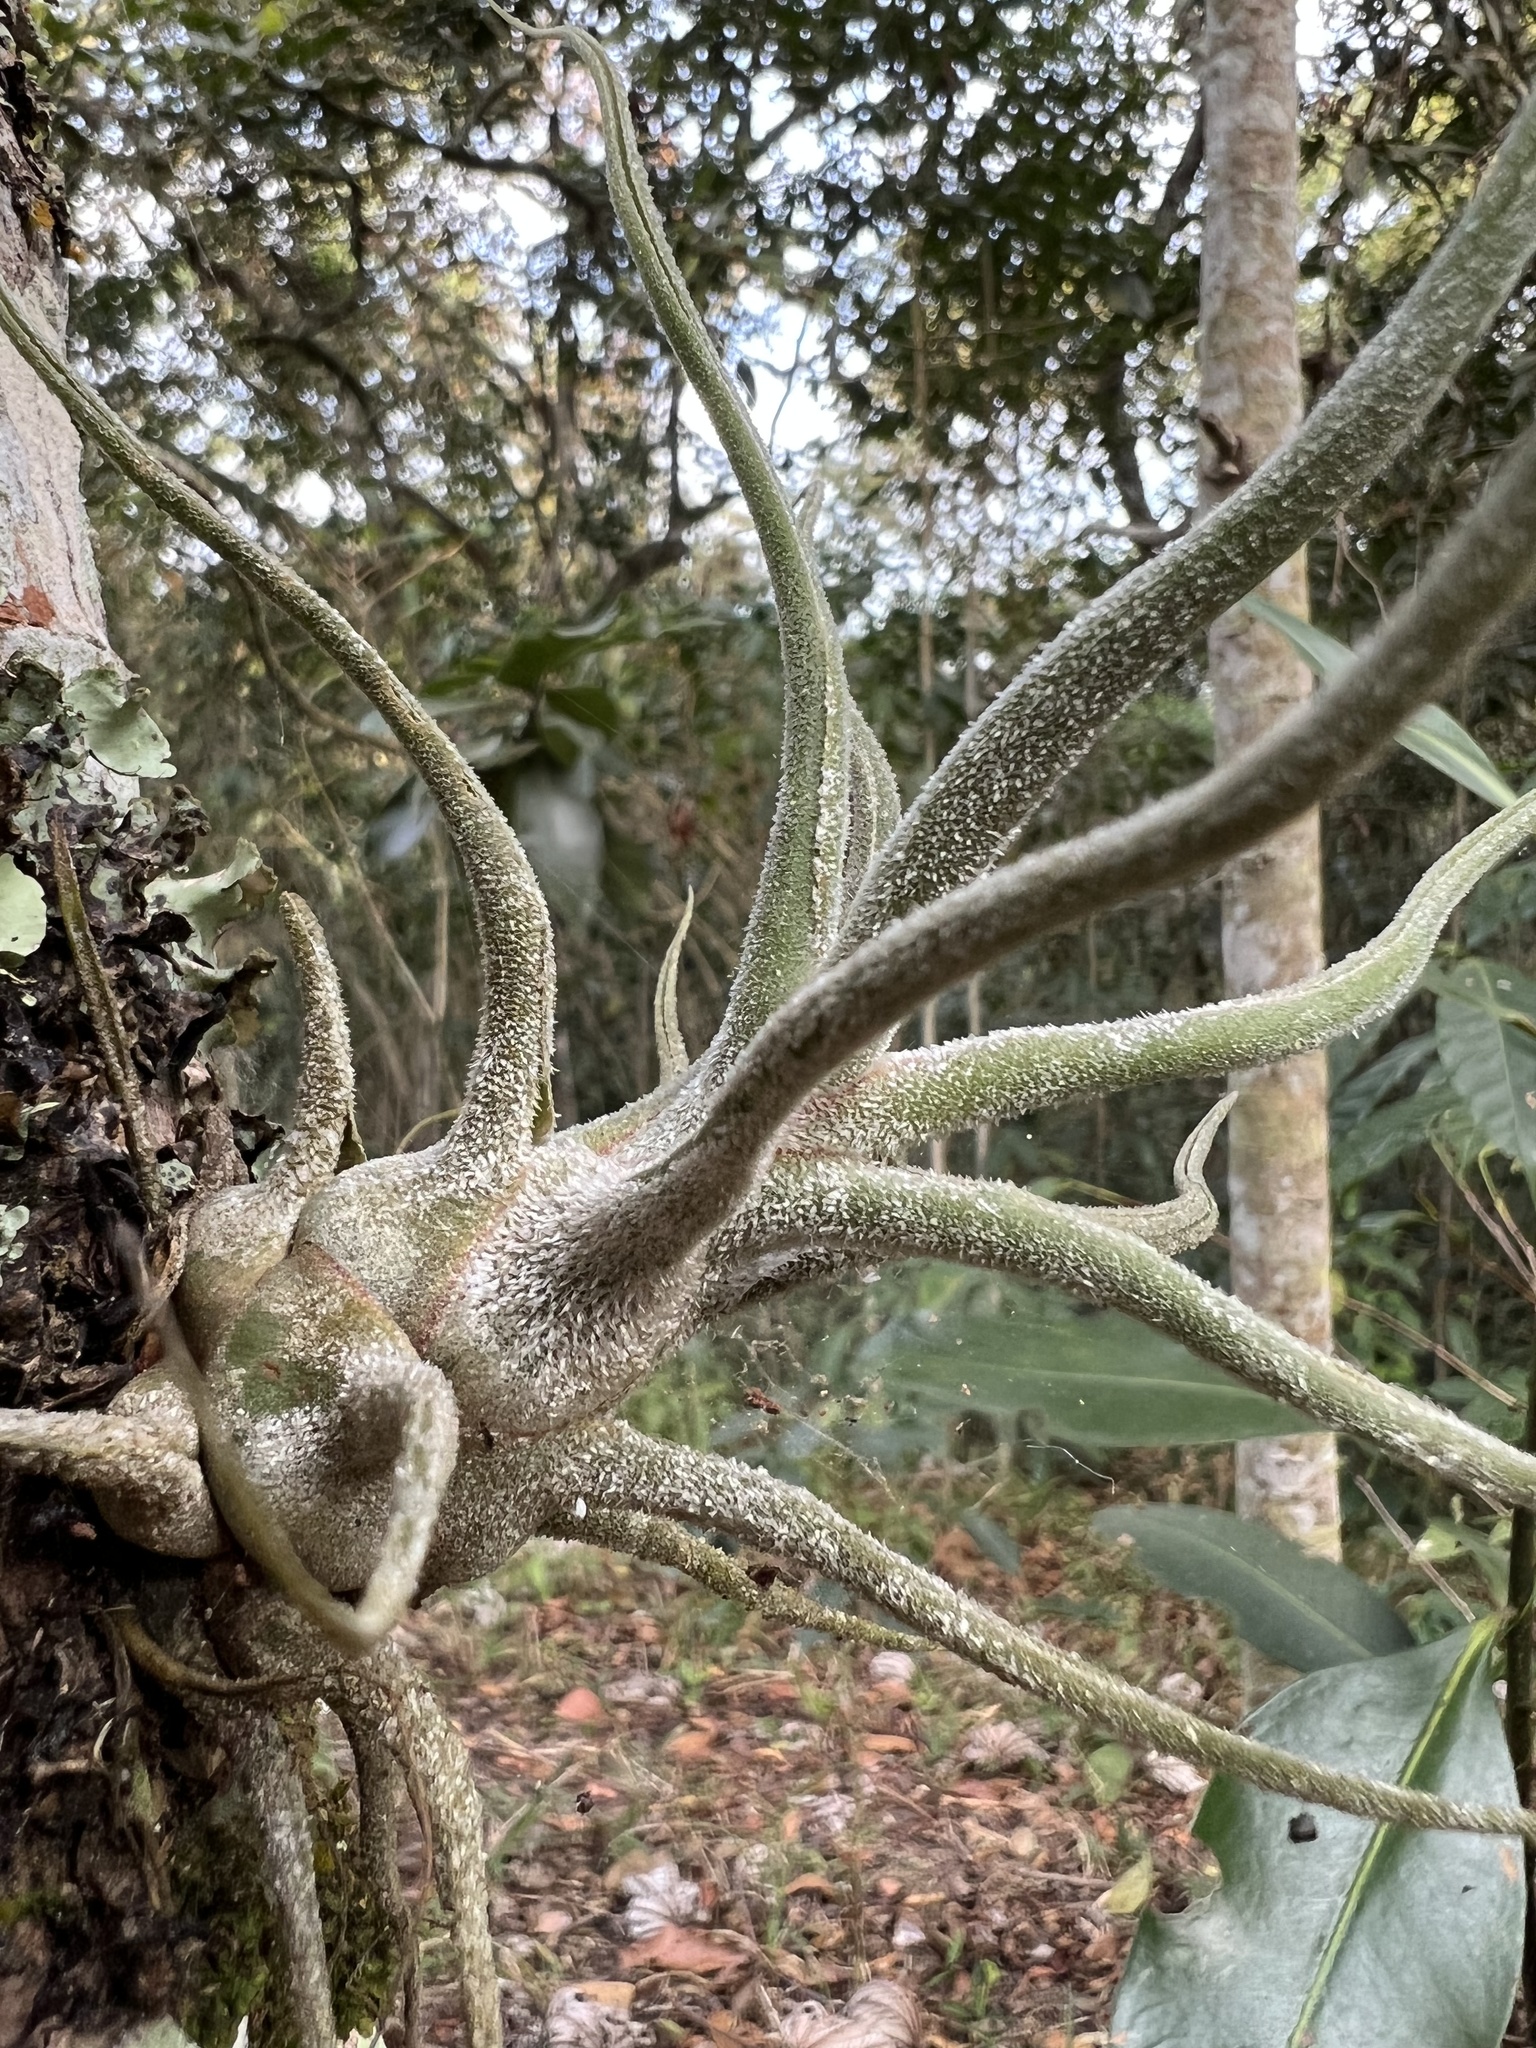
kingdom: Plantae
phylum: Tracheophyta
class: Liliopsida
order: Poales
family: Bromeliaceae
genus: Tillandsia
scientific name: Tillandsia pruinosa
